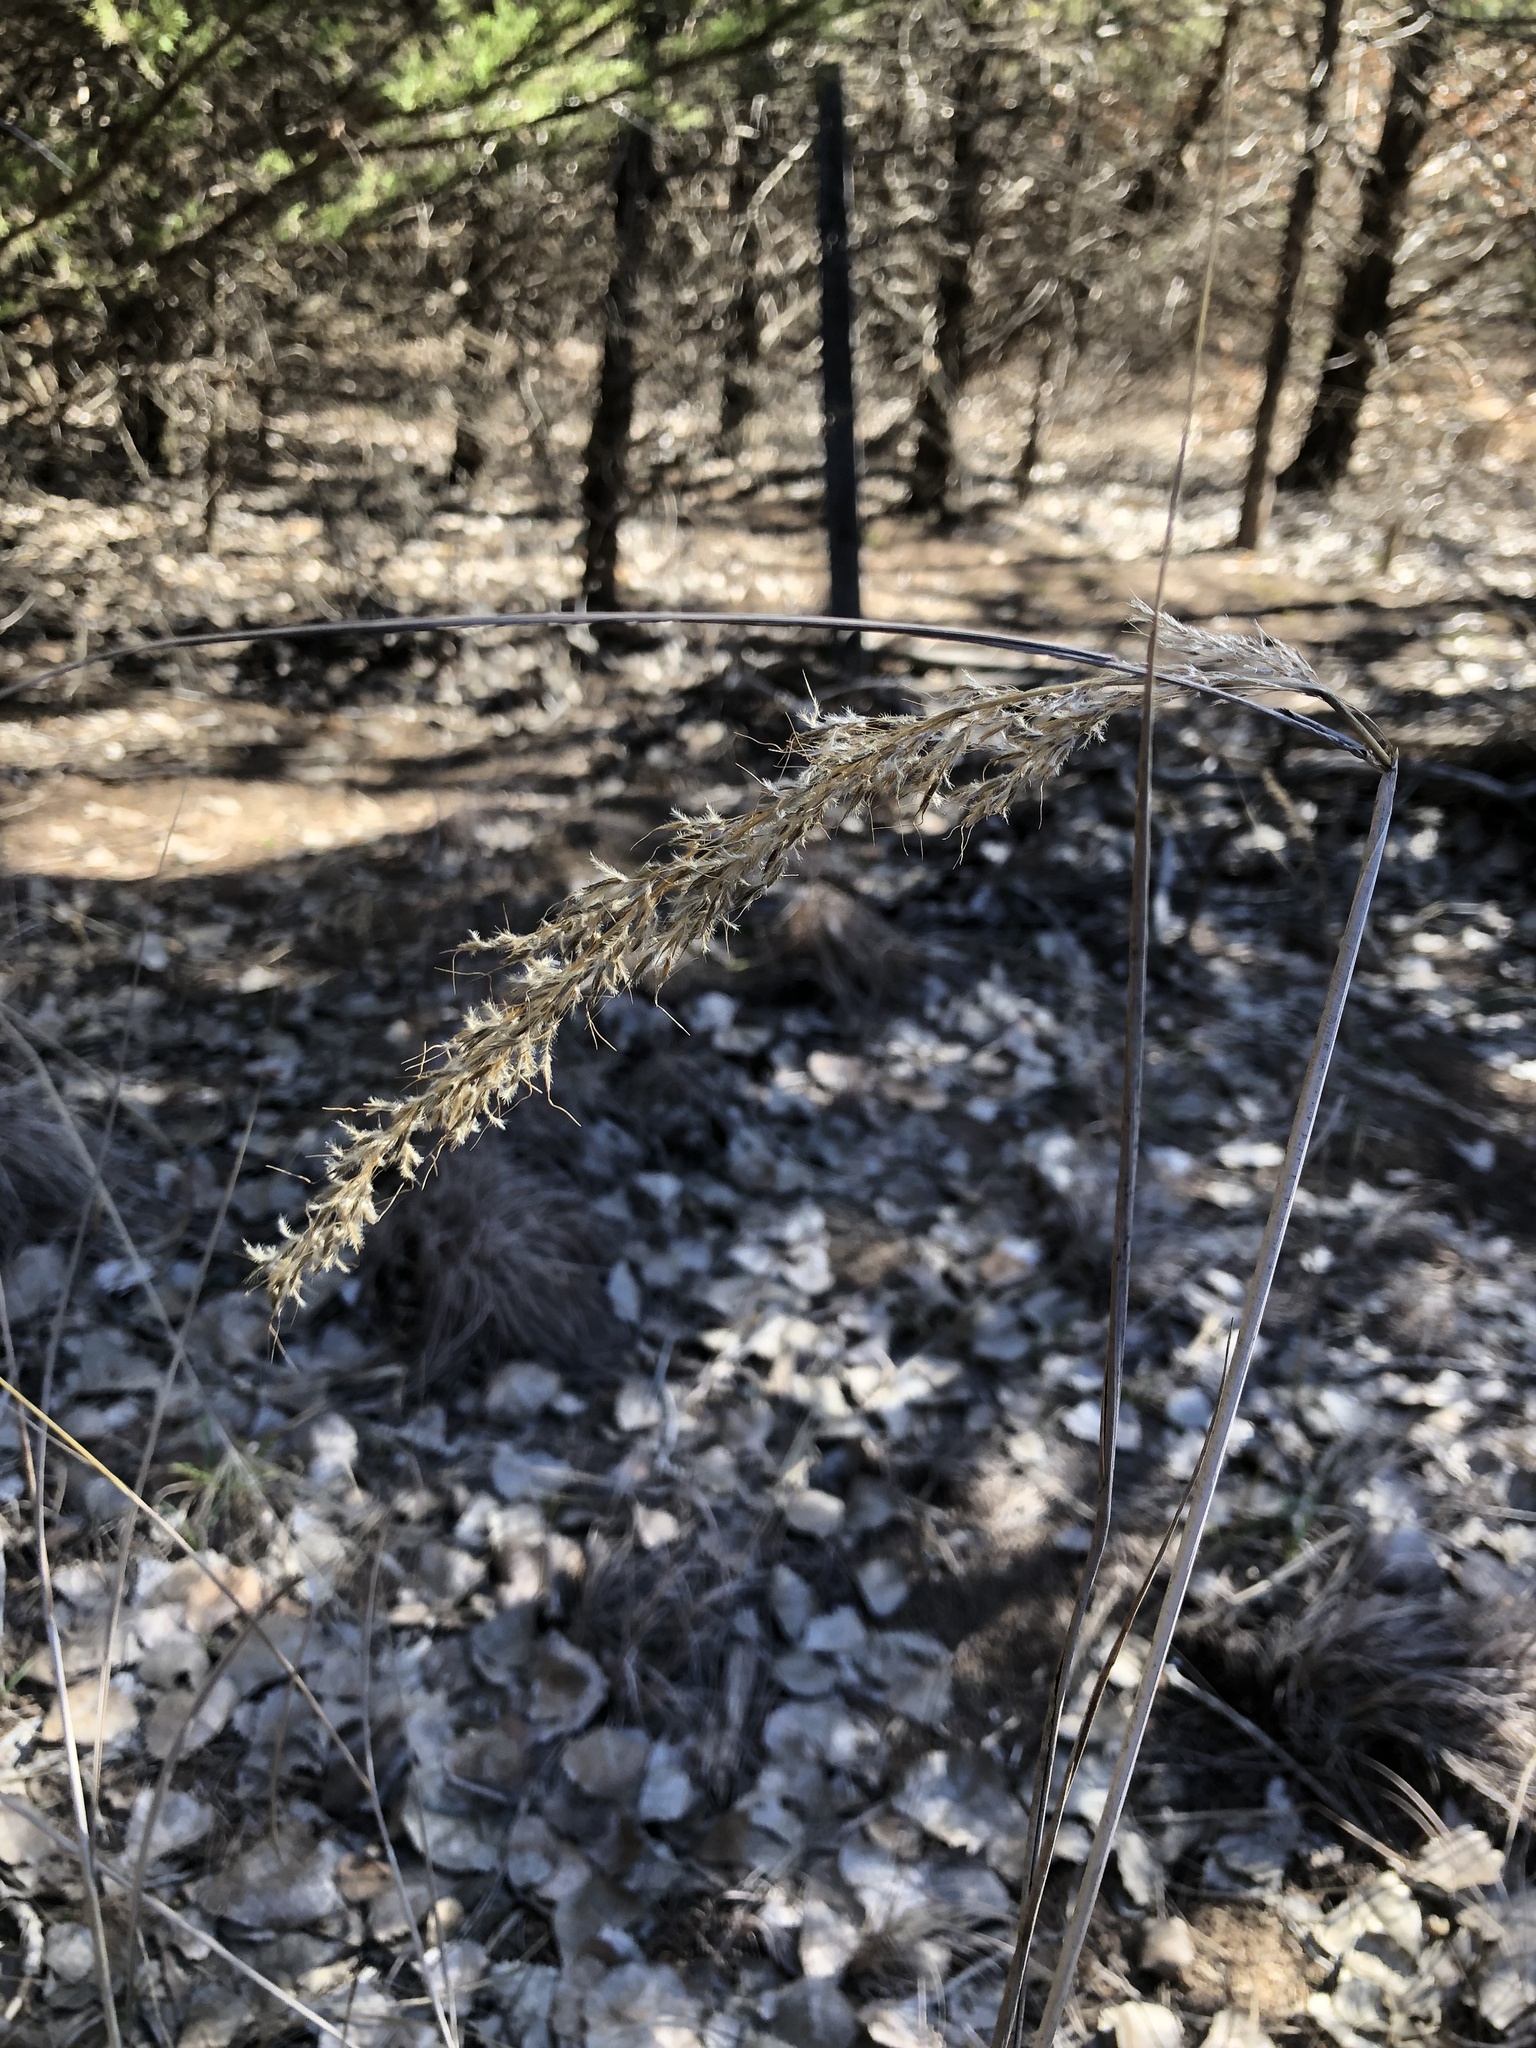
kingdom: Plantae
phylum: Tracheophyta
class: Liliopsida
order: Poales
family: Poaceae
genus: Sorghastrum
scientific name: Sorghastrum nutans
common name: Indian grass
